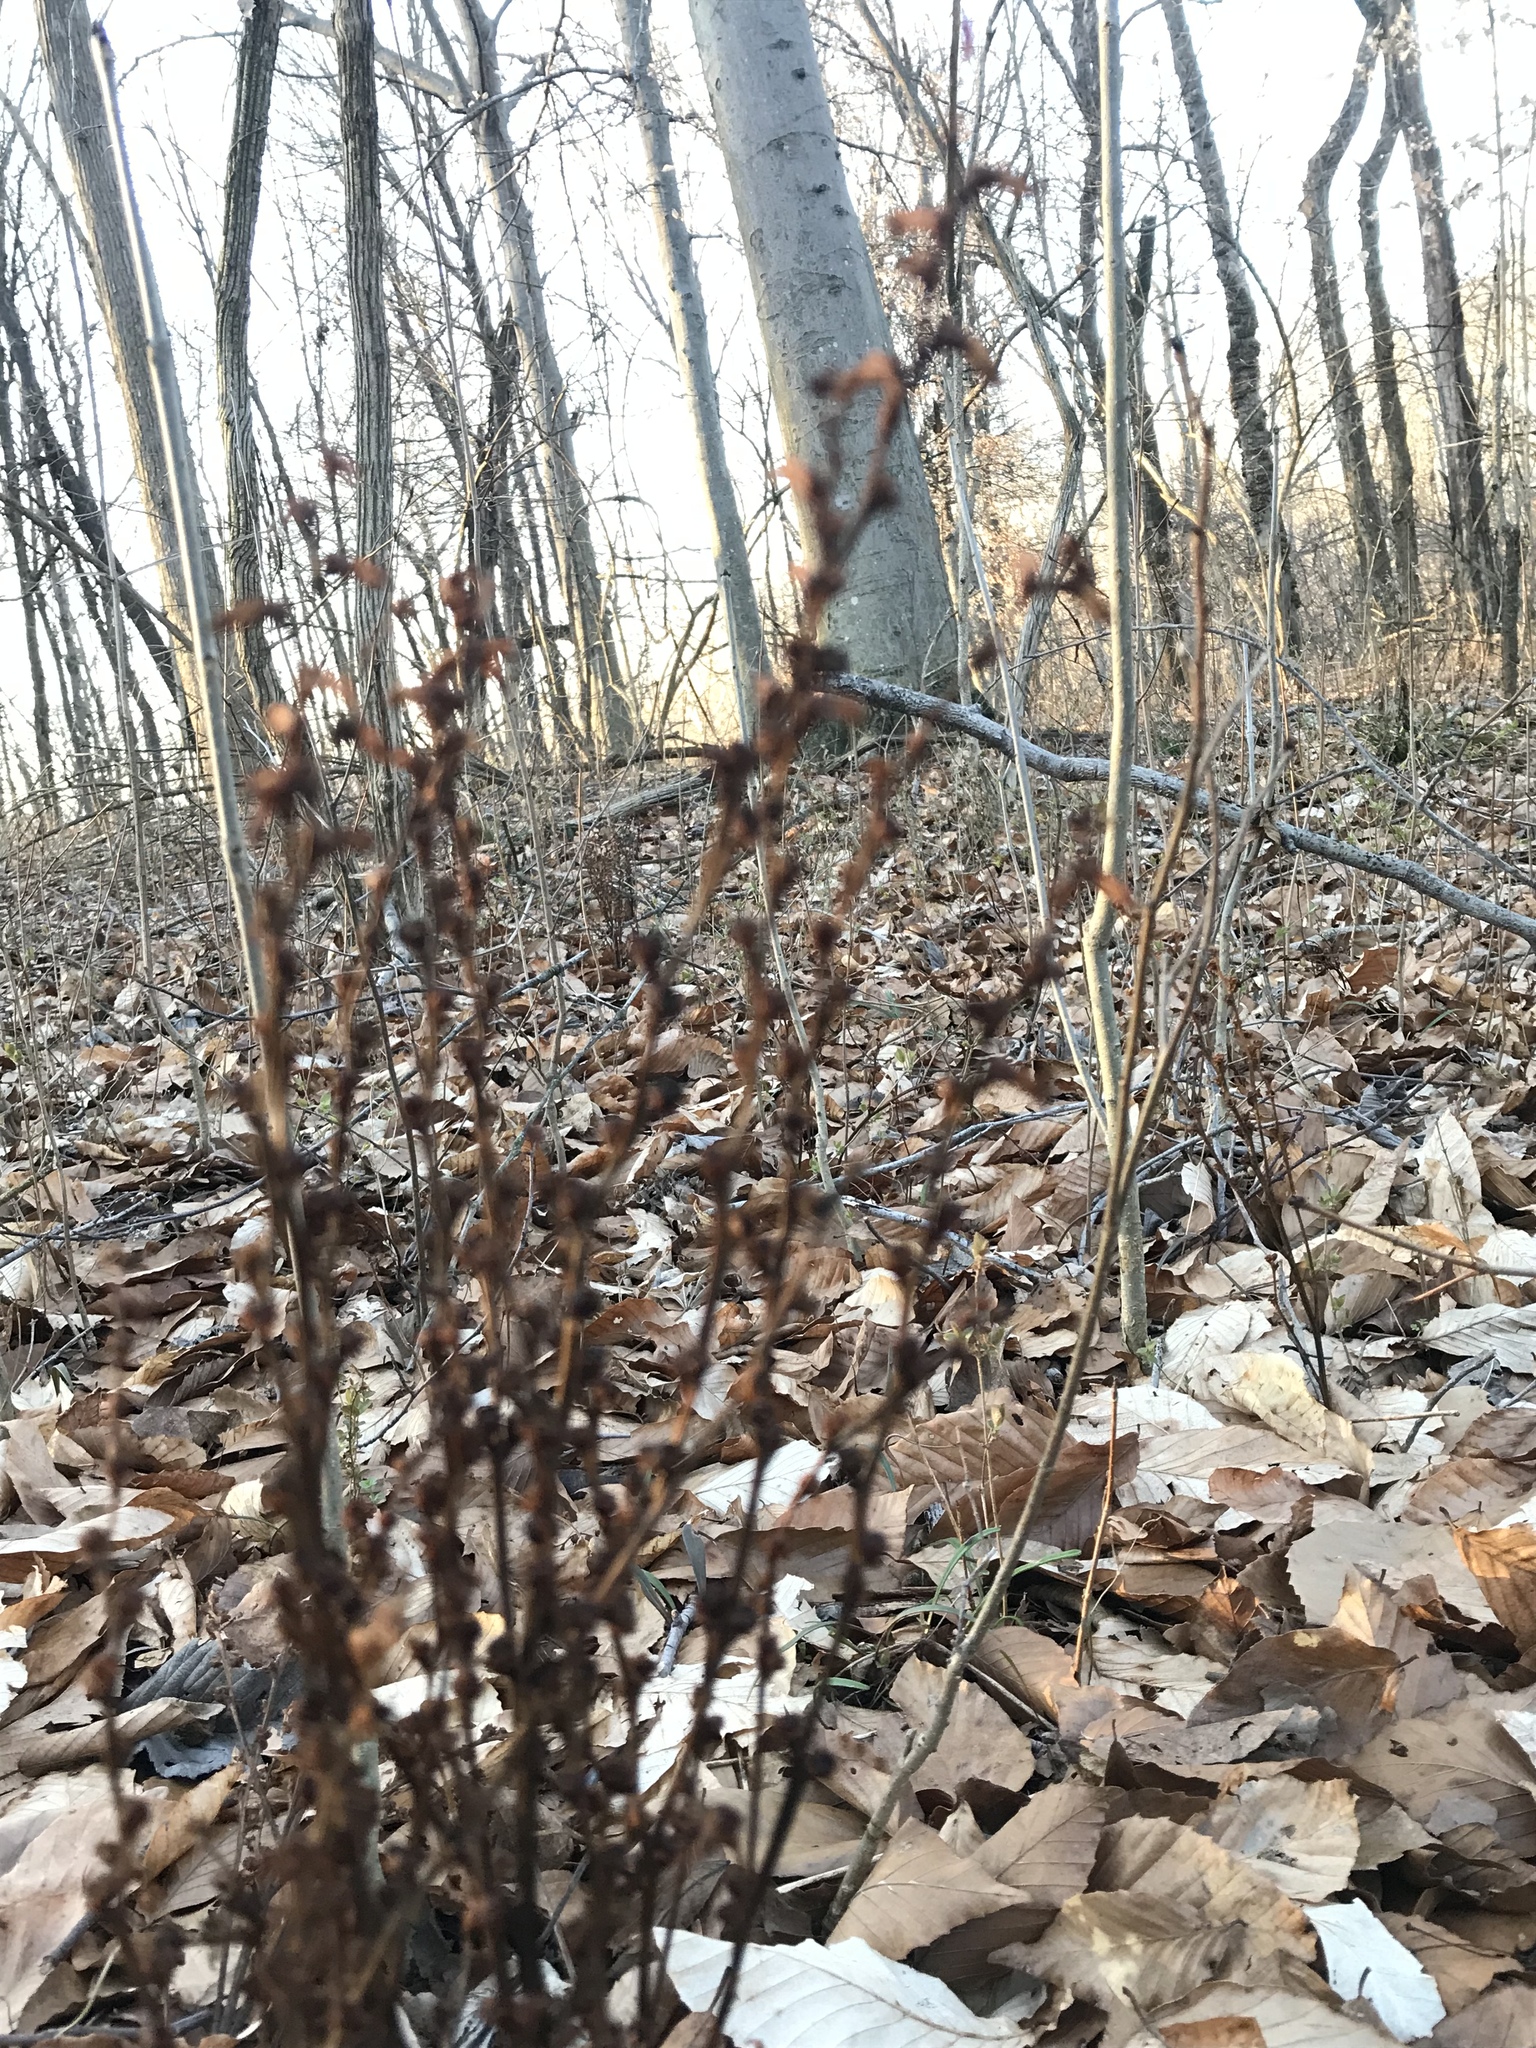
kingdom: Plantae
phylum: Tracheophyta
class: Magnoliopsida
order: Lamiales
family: Orobanchaceae
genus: Epifagus
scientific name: Epifagus virginiana
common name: Beechdrops
